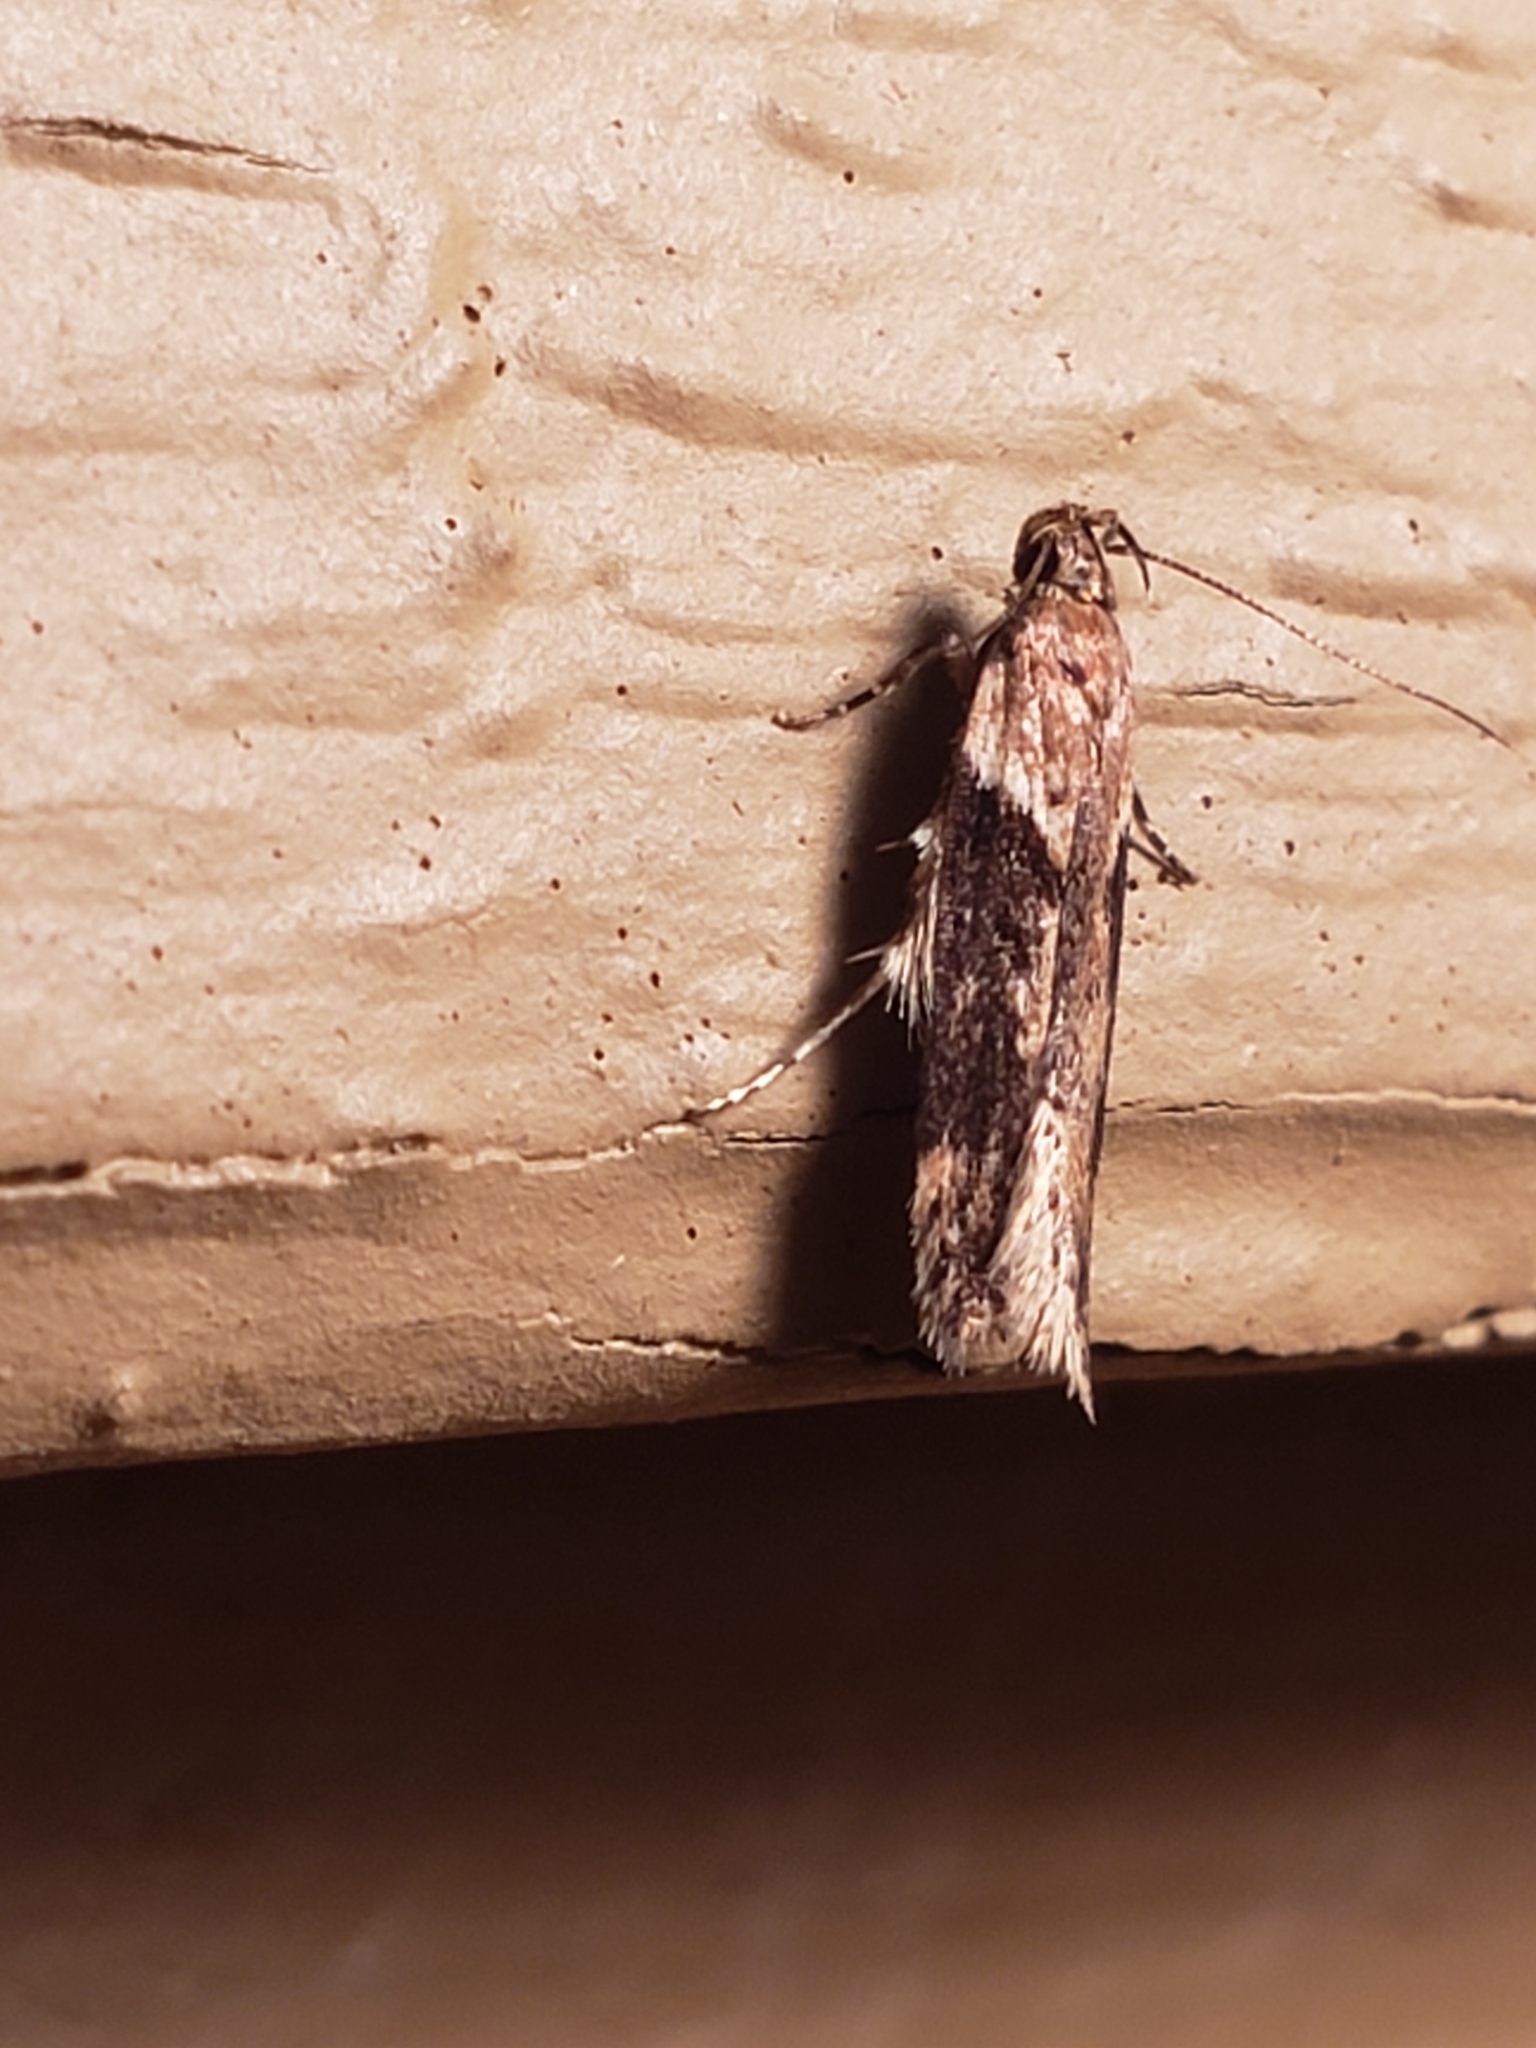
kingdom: Animalia
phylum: Arthropoda
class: Insecta
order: Lepidoptera
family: Gelechiidae
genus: Chionodes
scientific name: Chionodes mediofuscella
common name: Black-smudged chionodes moth
